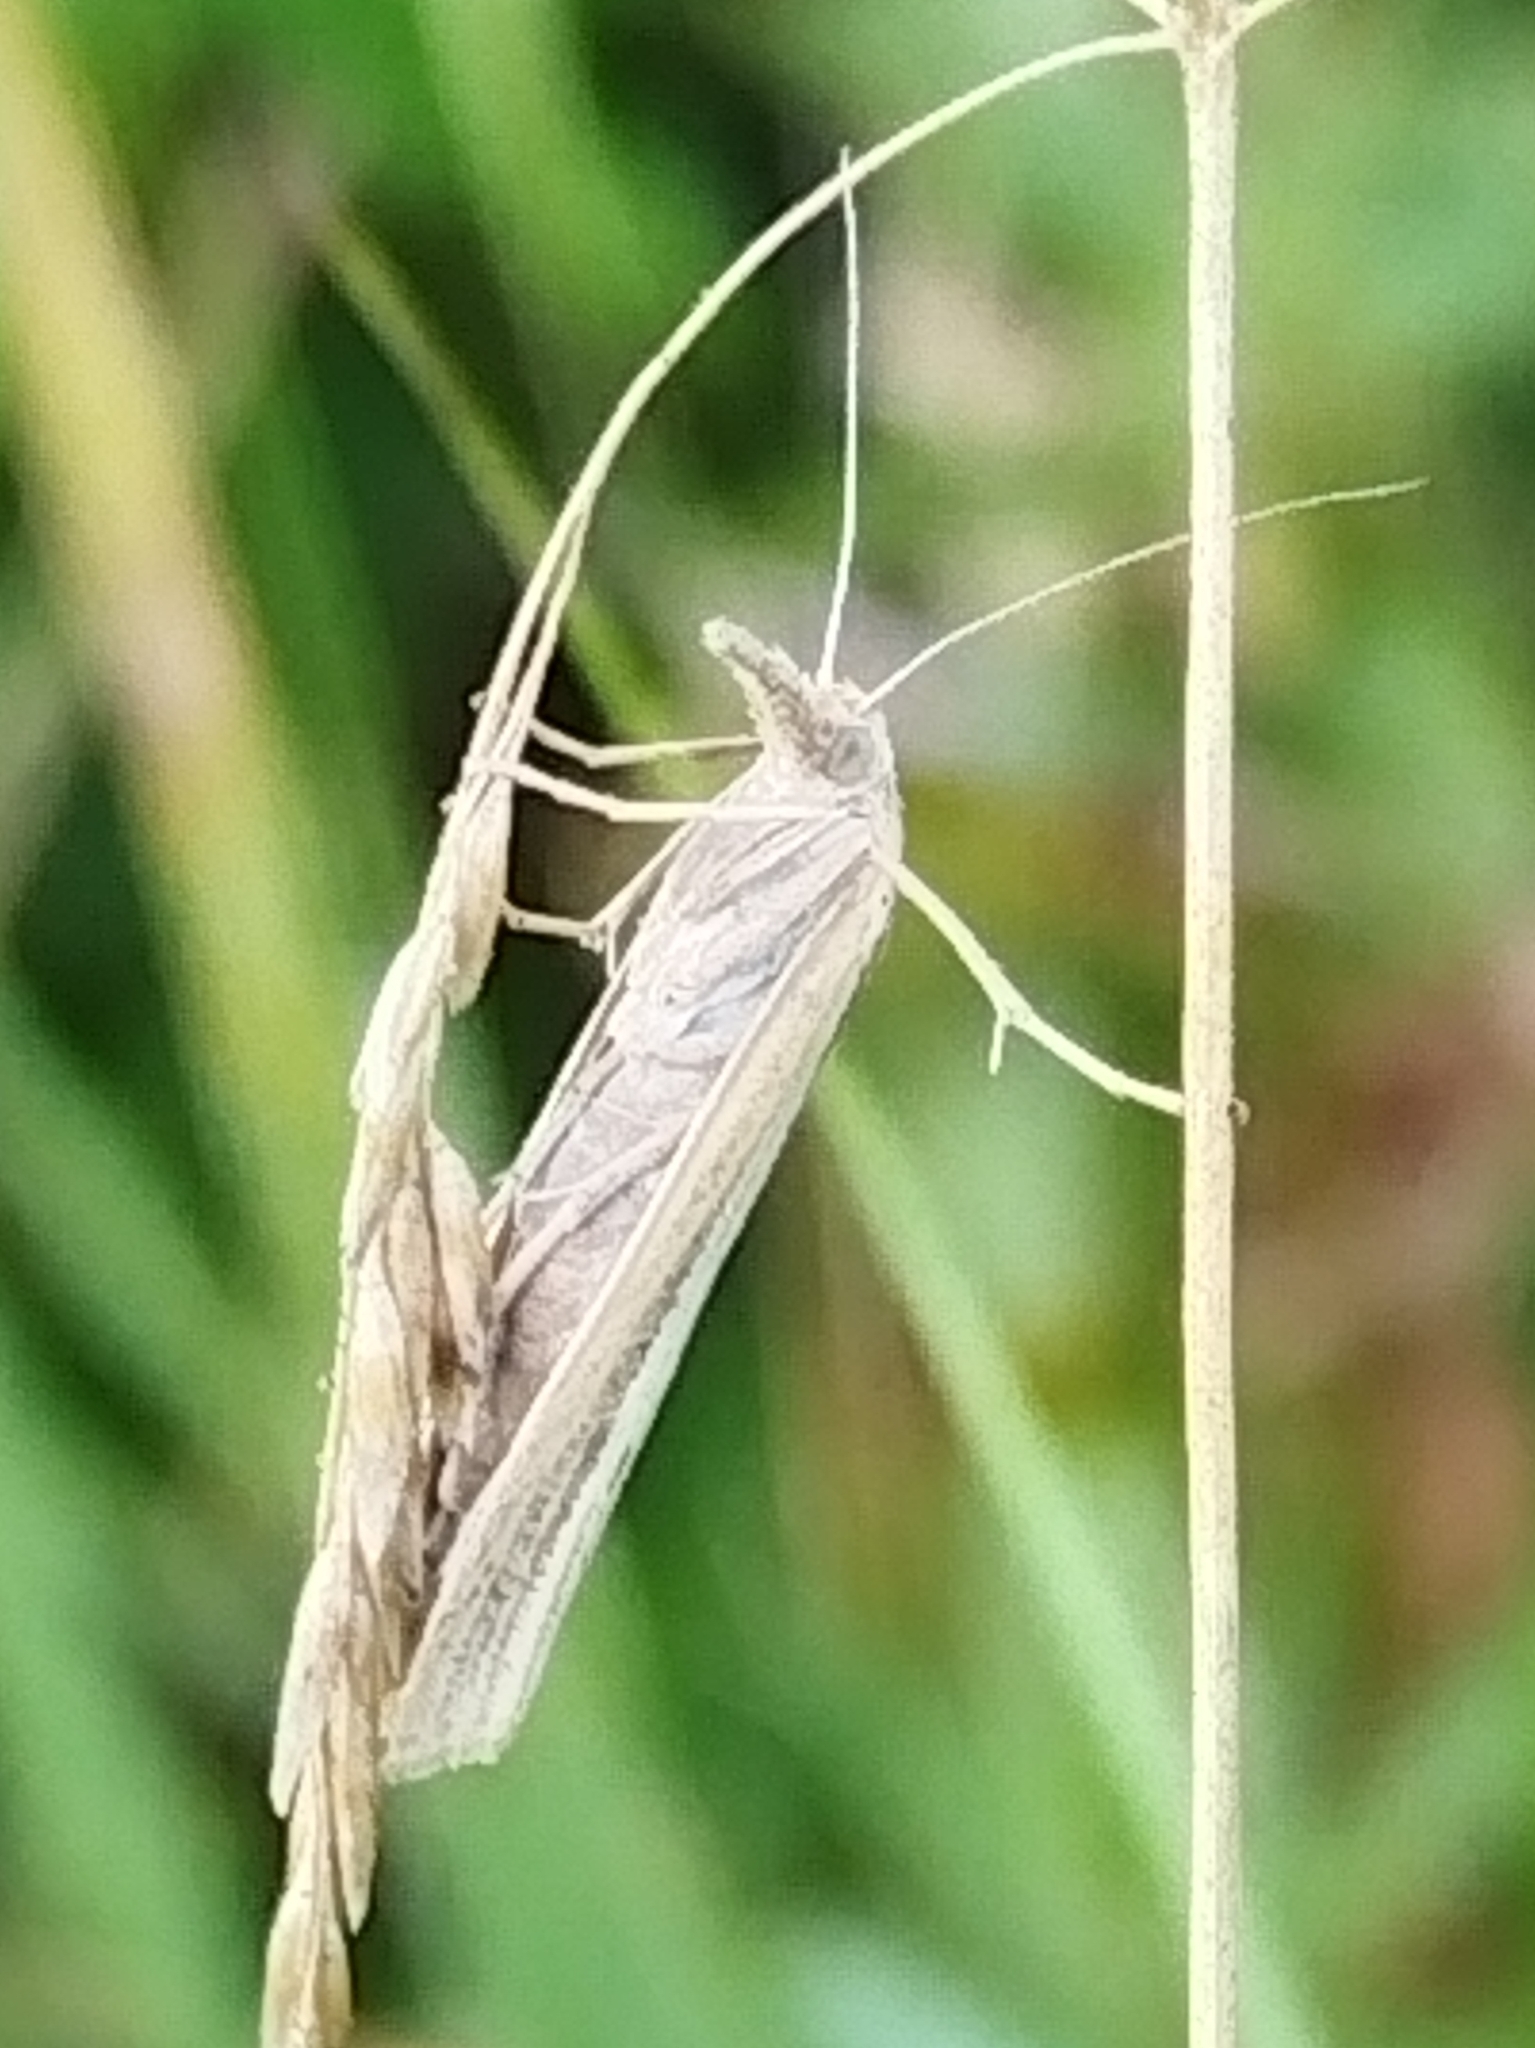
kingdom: Animalia
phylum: Arthropoda
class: Insecta
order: Lepidoptera
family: Crambidae
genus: Agriphila
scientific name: Agriphila tristellus
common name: Common grass-veneer
